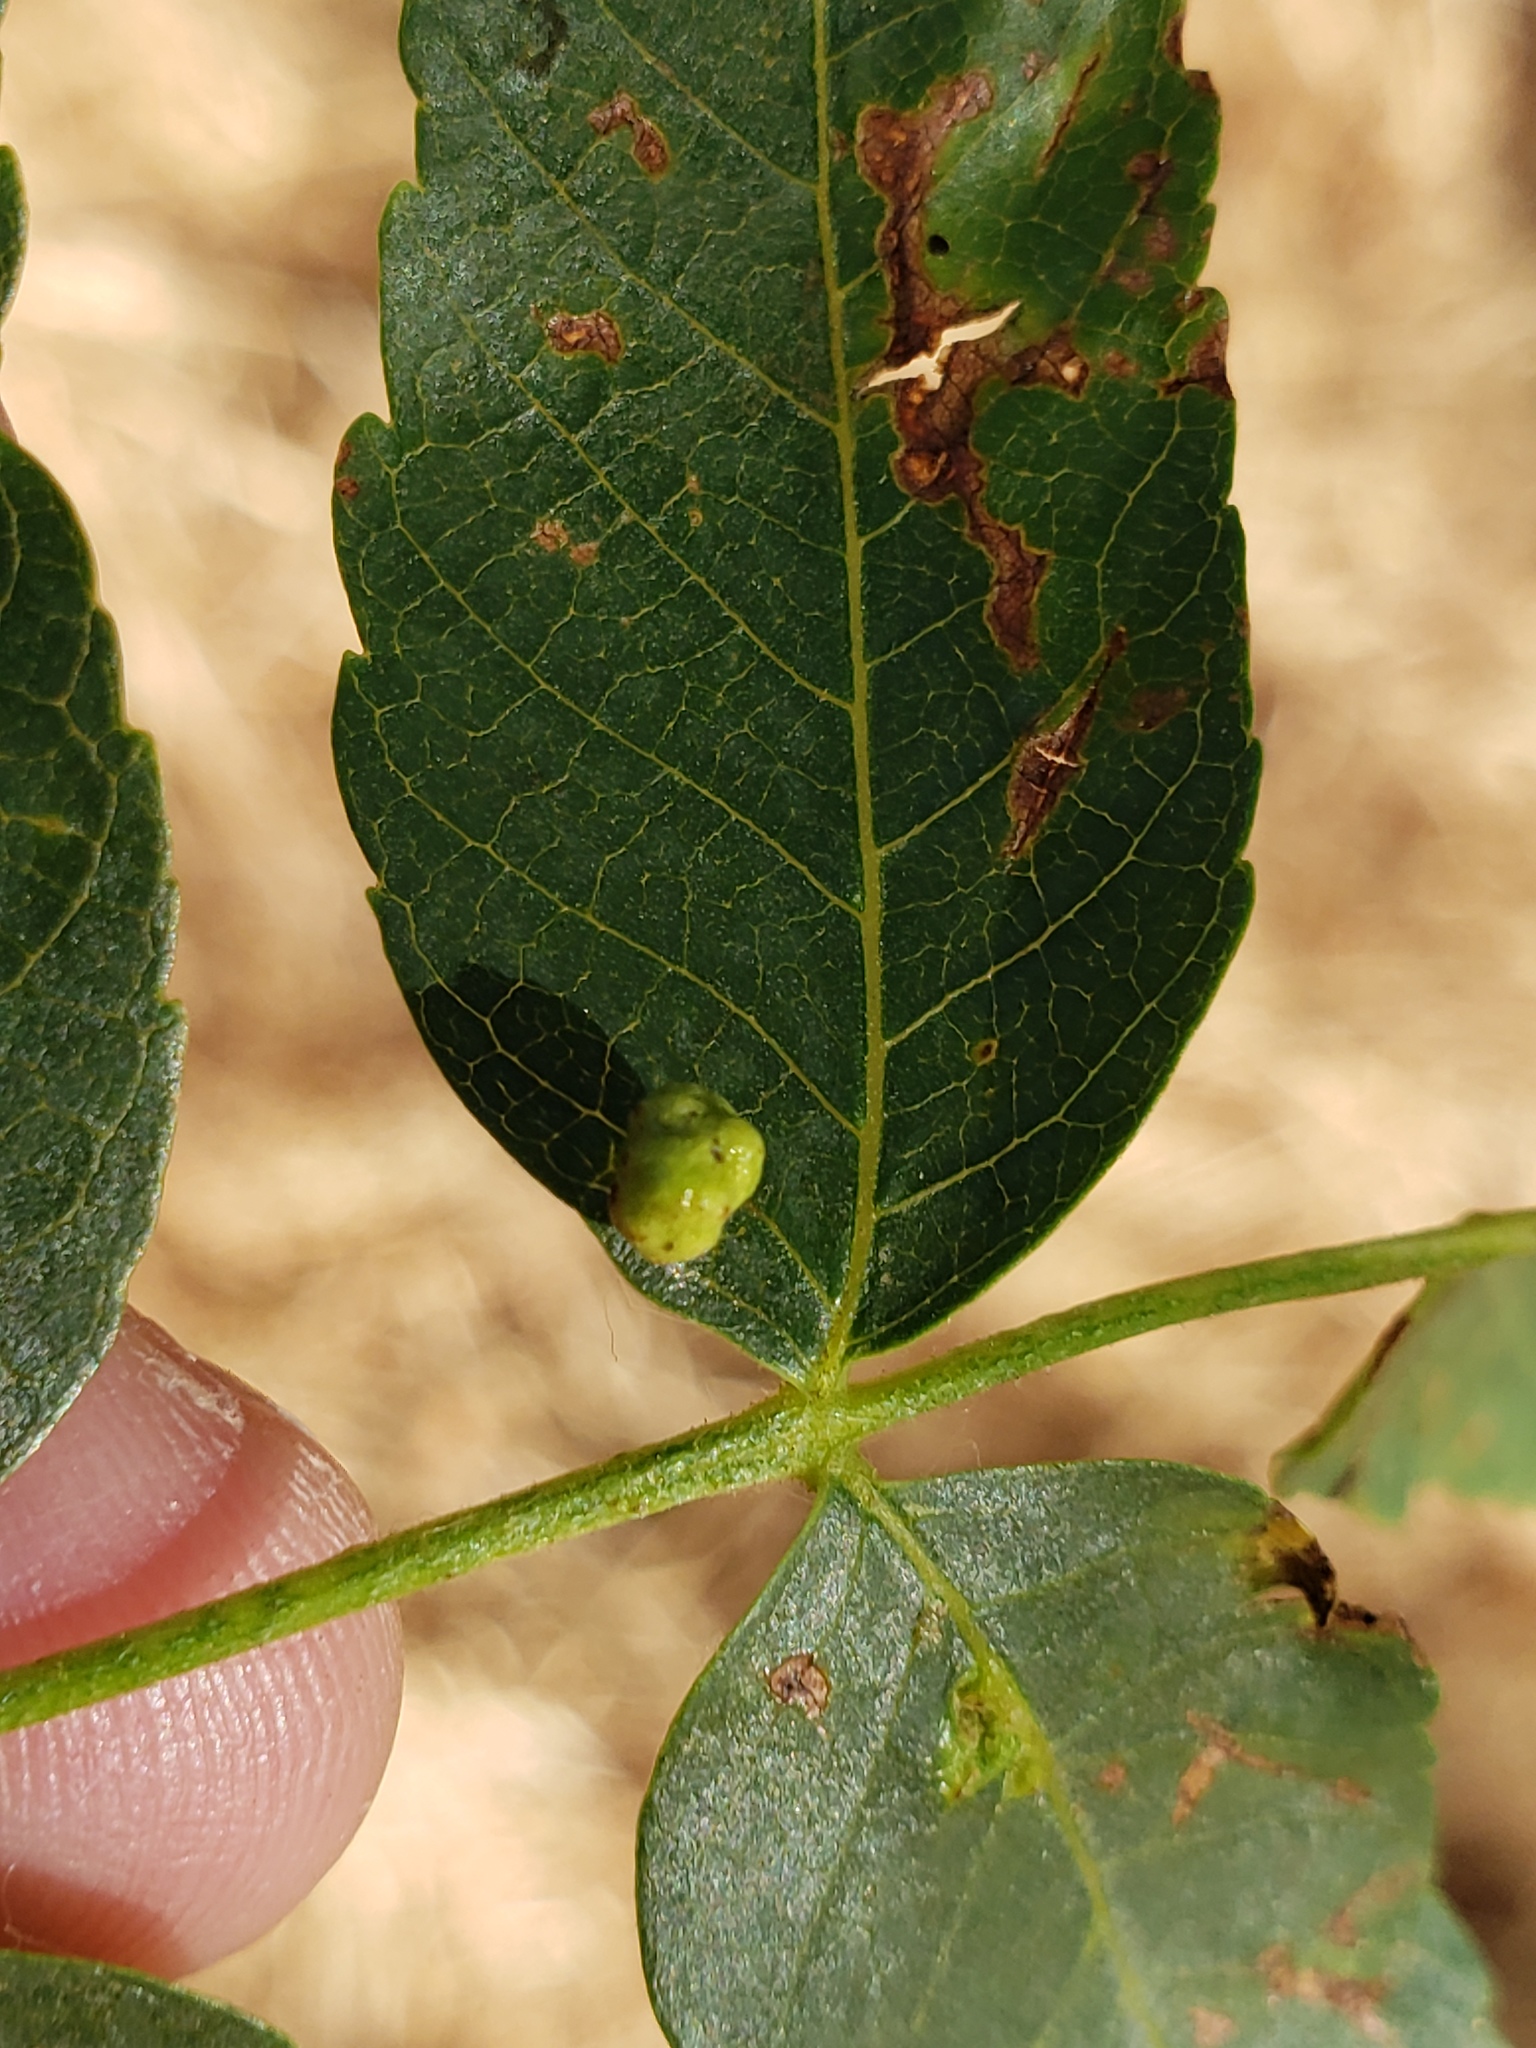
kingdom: Animalia
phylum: Arthropoda
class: Arachnida
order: Trombidiformes
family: Eriophyidae
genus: Aceria
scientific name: Aceria brachytarsus
